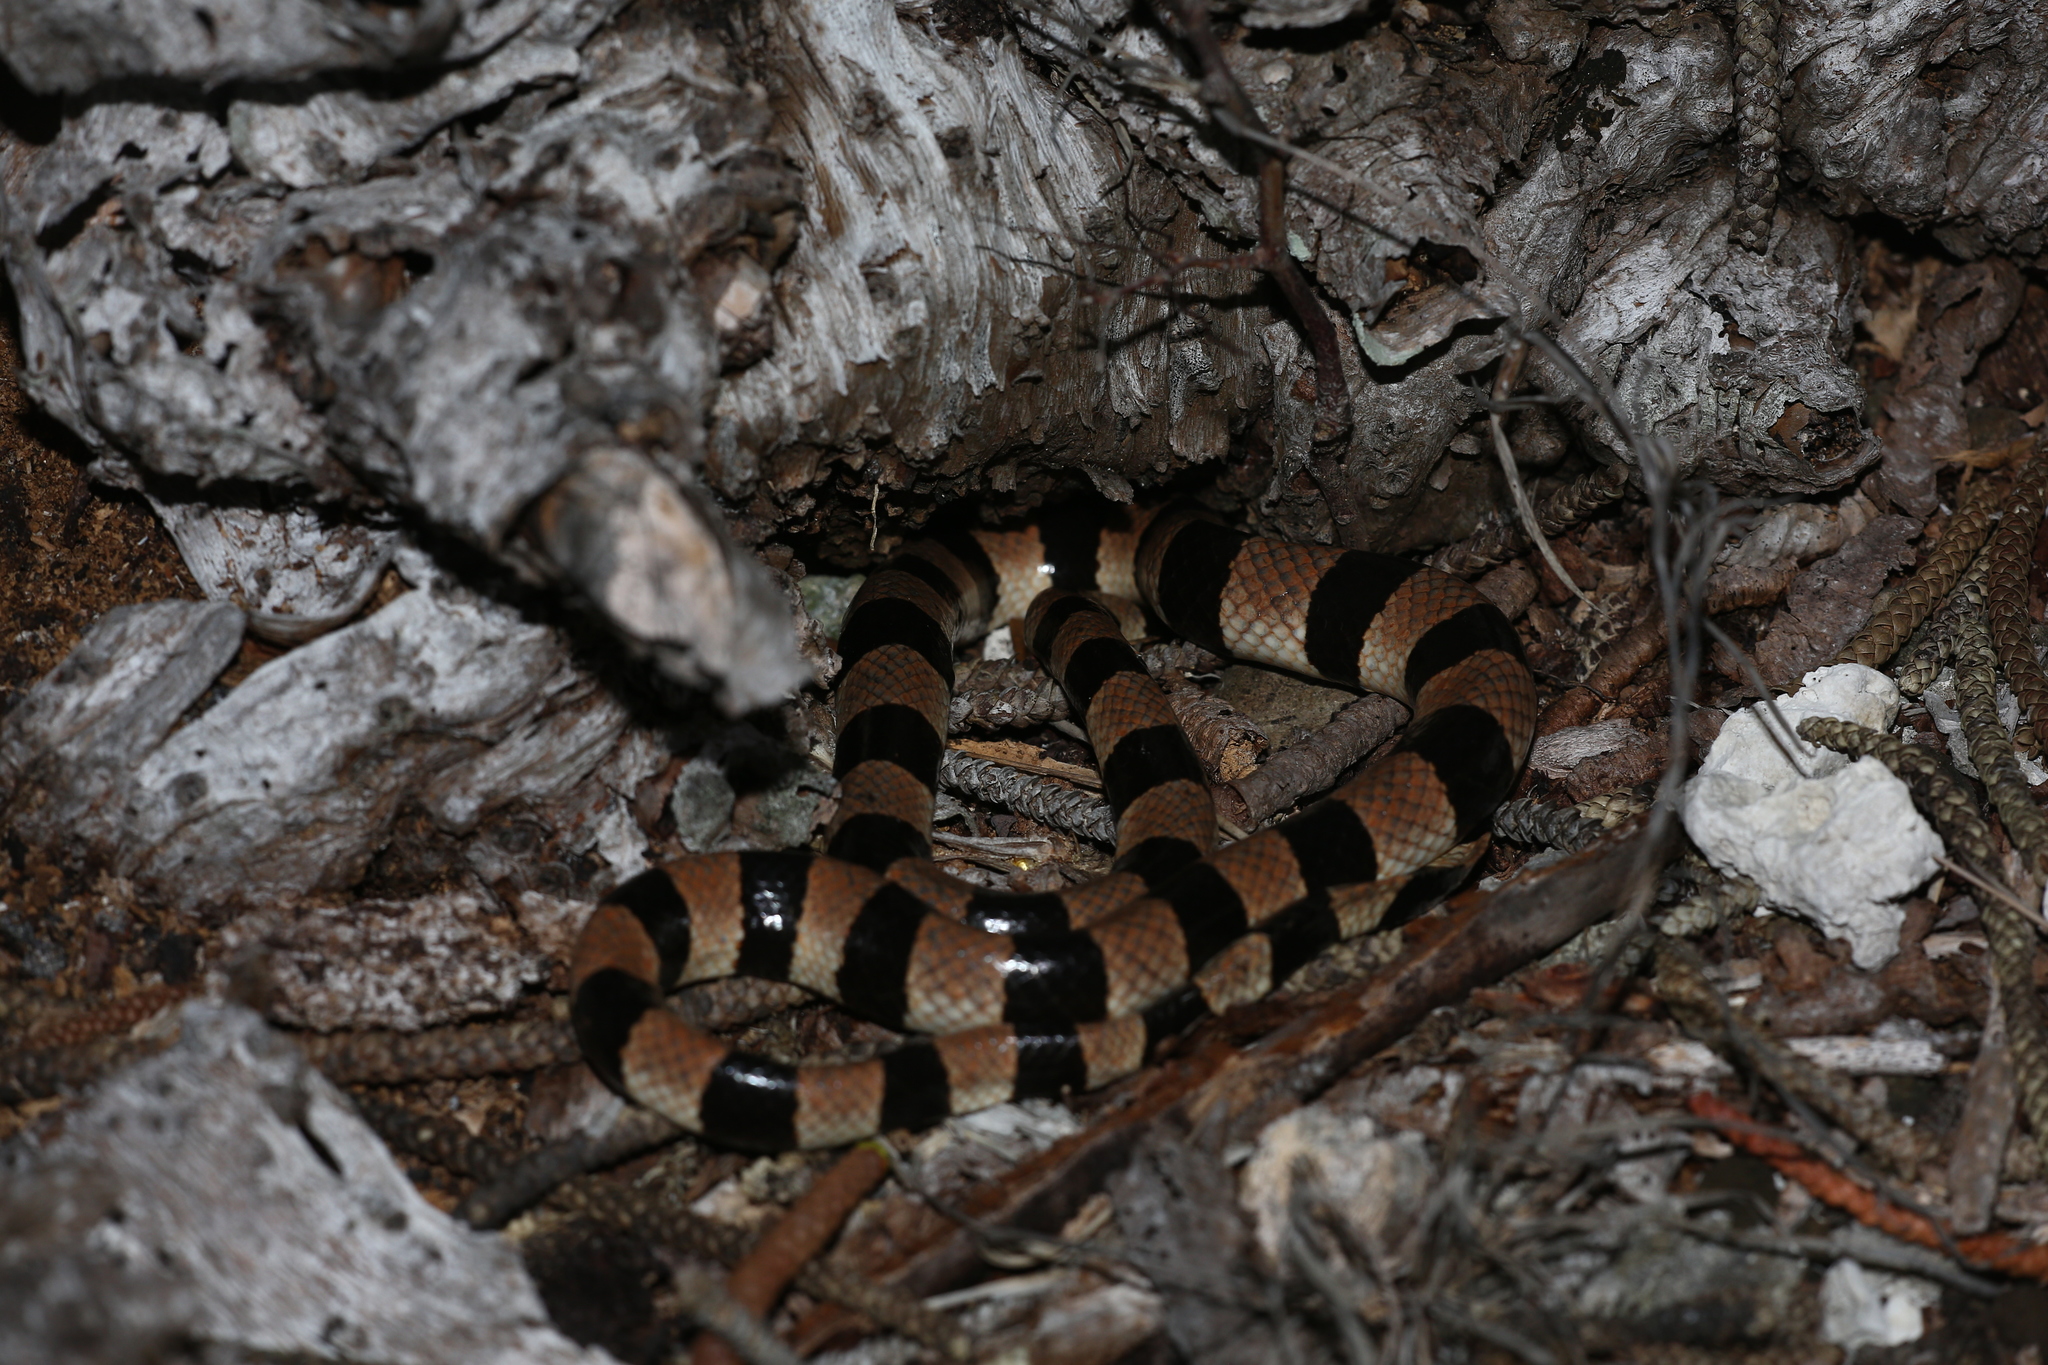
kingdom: Animalia
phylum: Chordata
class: Squamata
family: Elapidae
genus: Laticauda
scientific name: Laticauda saintgironsi
